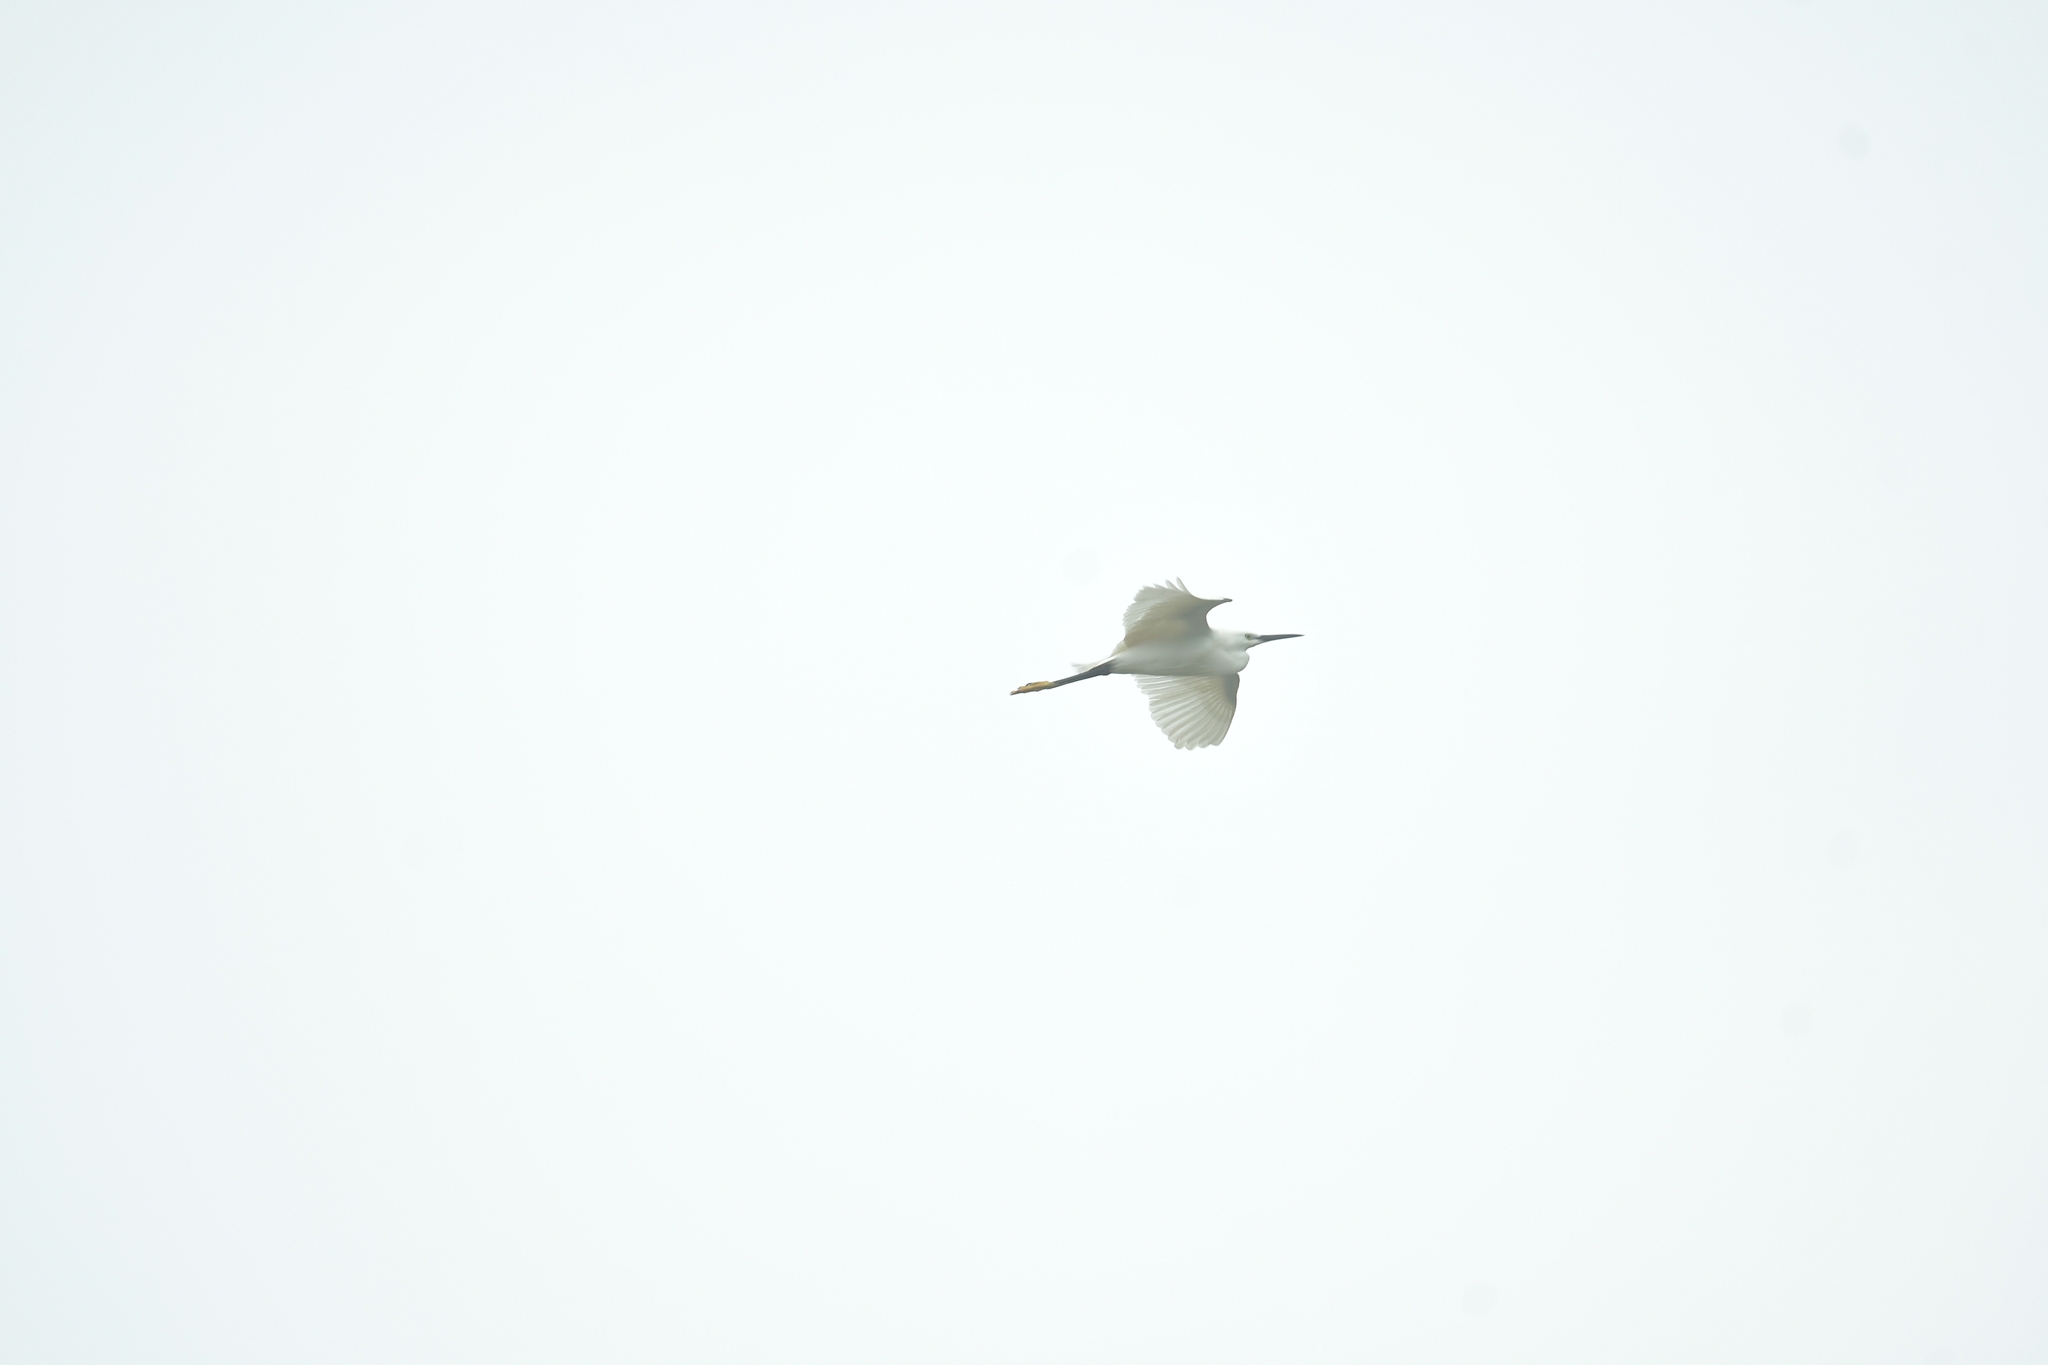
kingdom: Animalia
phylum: Chordata
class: Aves
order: Pelecaniformes
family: Ardeidae
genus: Egretta
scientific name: Egretta garzetta
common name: Little egret
